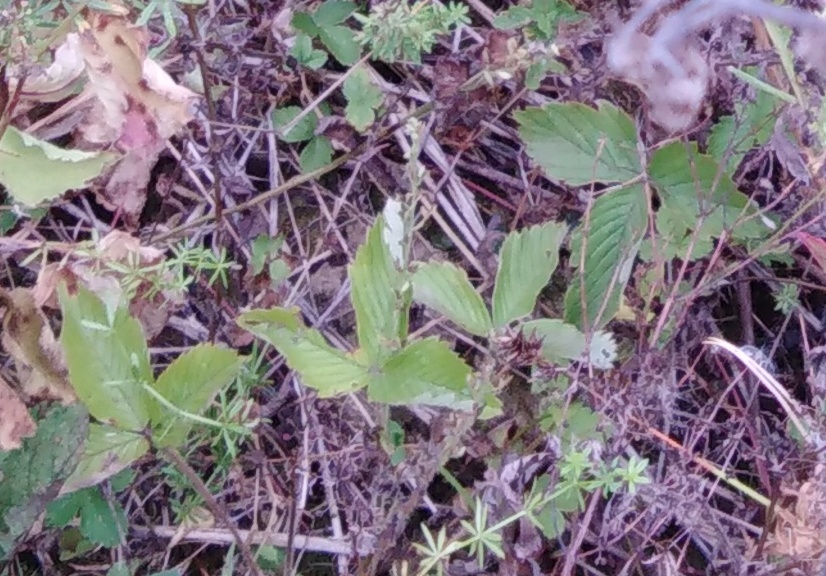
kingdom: Plantae
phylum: Tracheophyta
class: Magnoliopsida
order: Rosales
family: Rosaceae
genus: Fragaria
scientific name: Fragaria viridis
